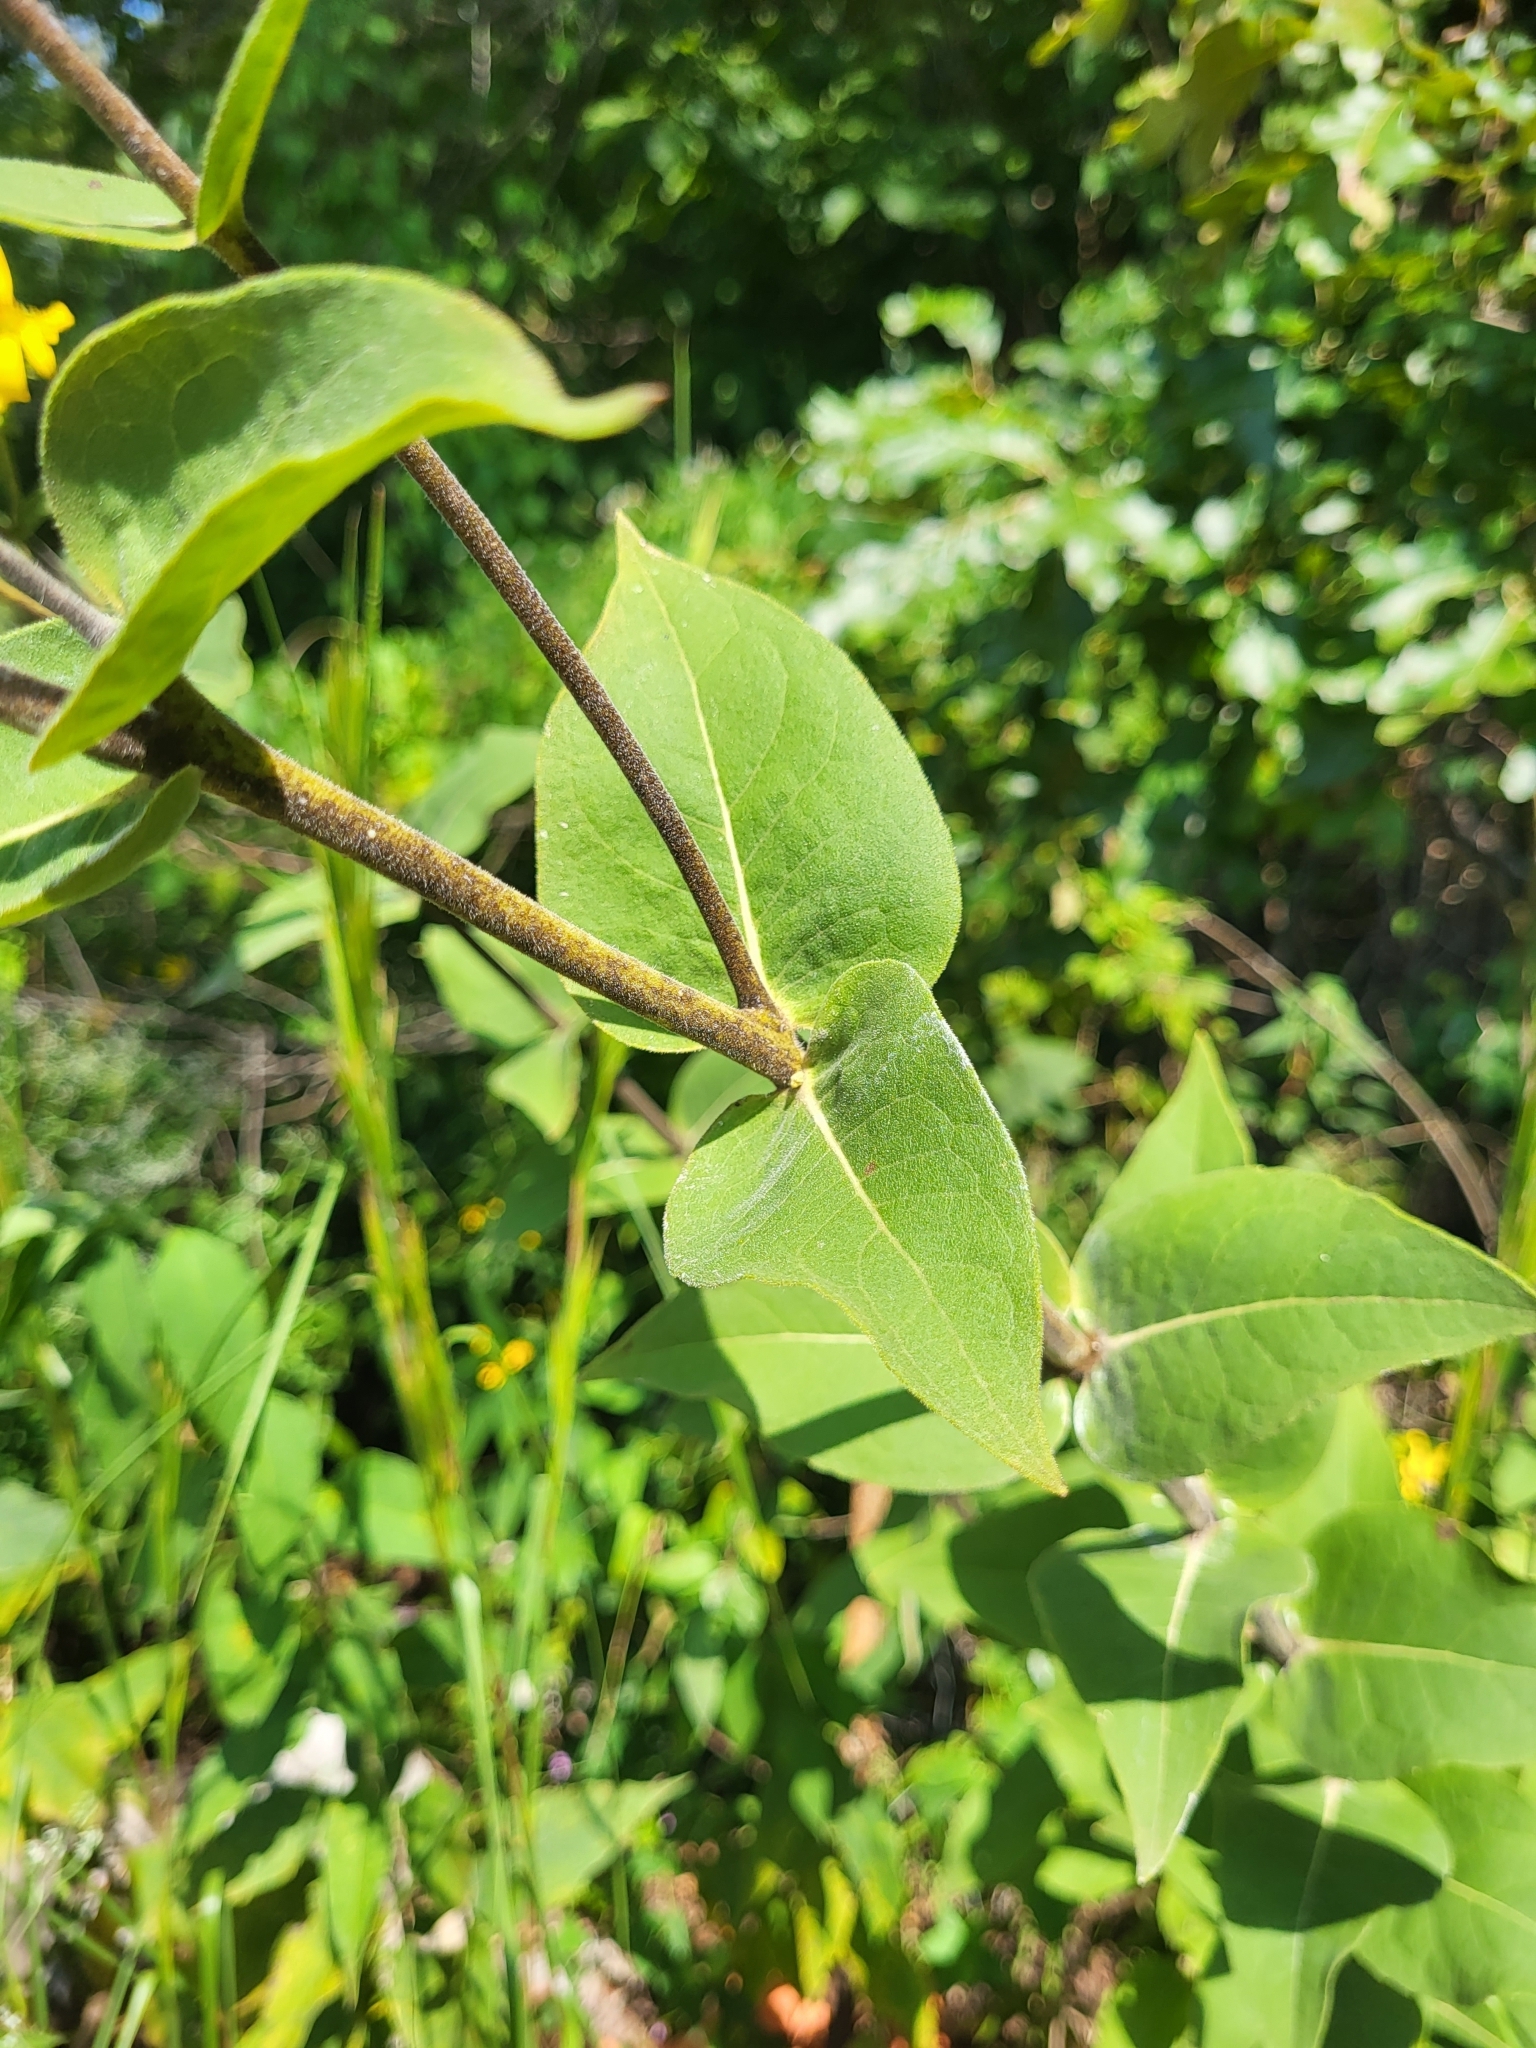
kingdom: Plantae
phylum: Tracheophyta
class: Magnoliopsida
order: Asterales
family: Asteraceae
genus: Silphium
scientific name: Silphium integrifolium
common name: Whole-leaf rosinweed
